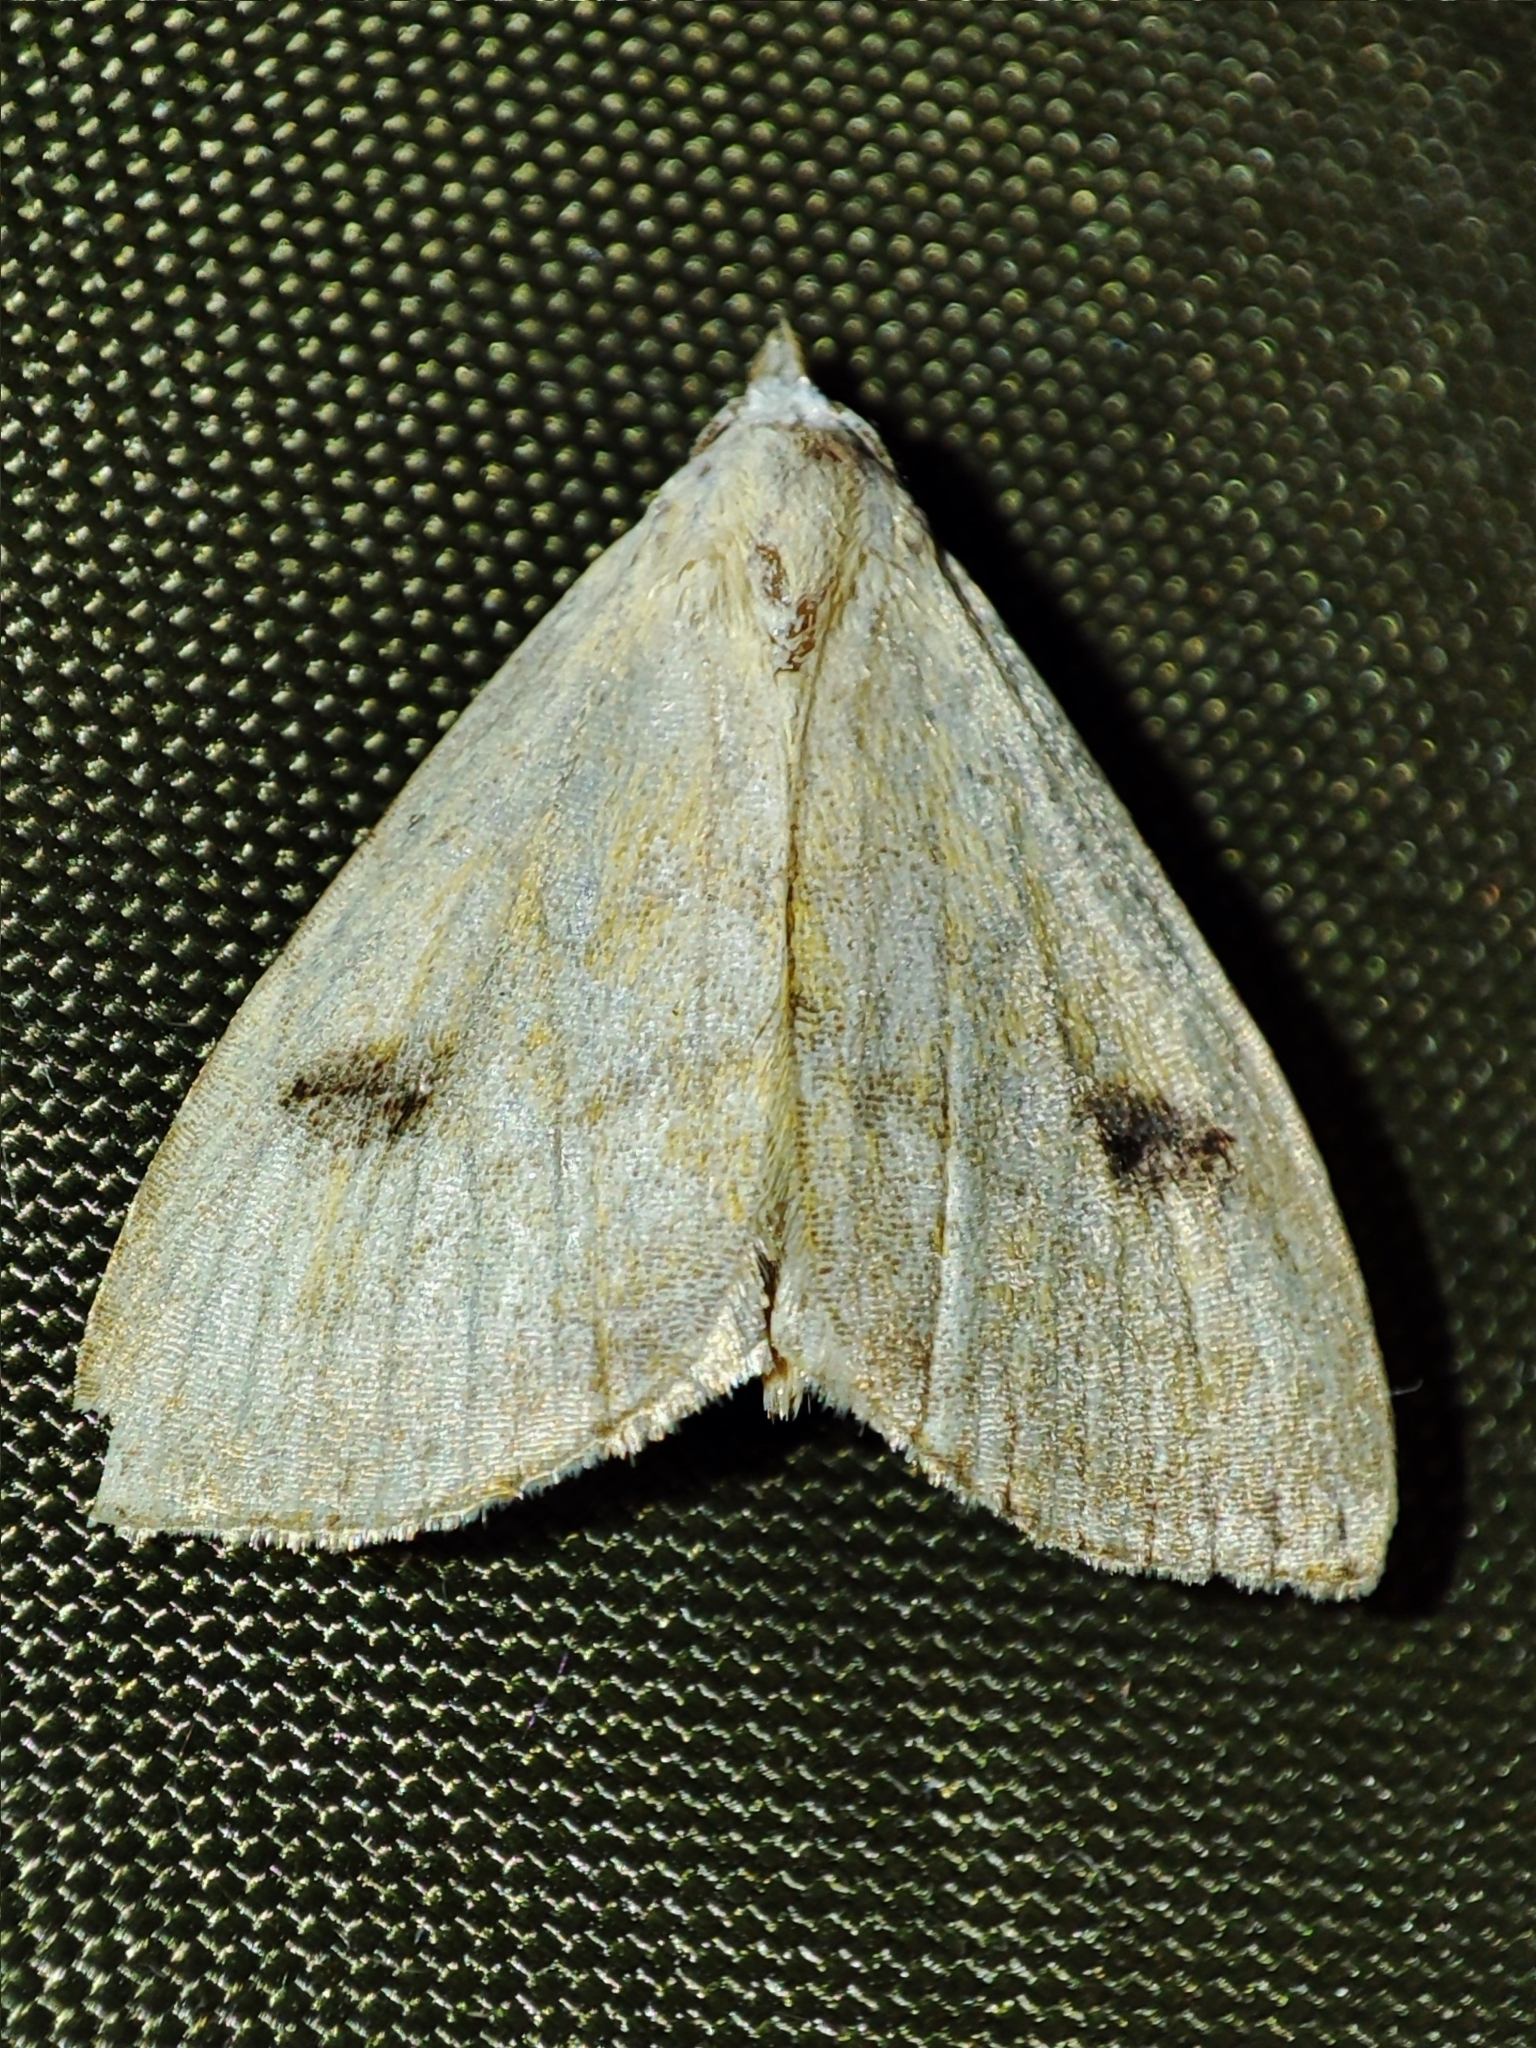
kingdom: Animalia
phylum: Arthropoda
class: Insecta
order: Lepidoptera
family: Erebidae
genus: Rivula
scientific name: Rivula sericealis
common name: Straw dot
